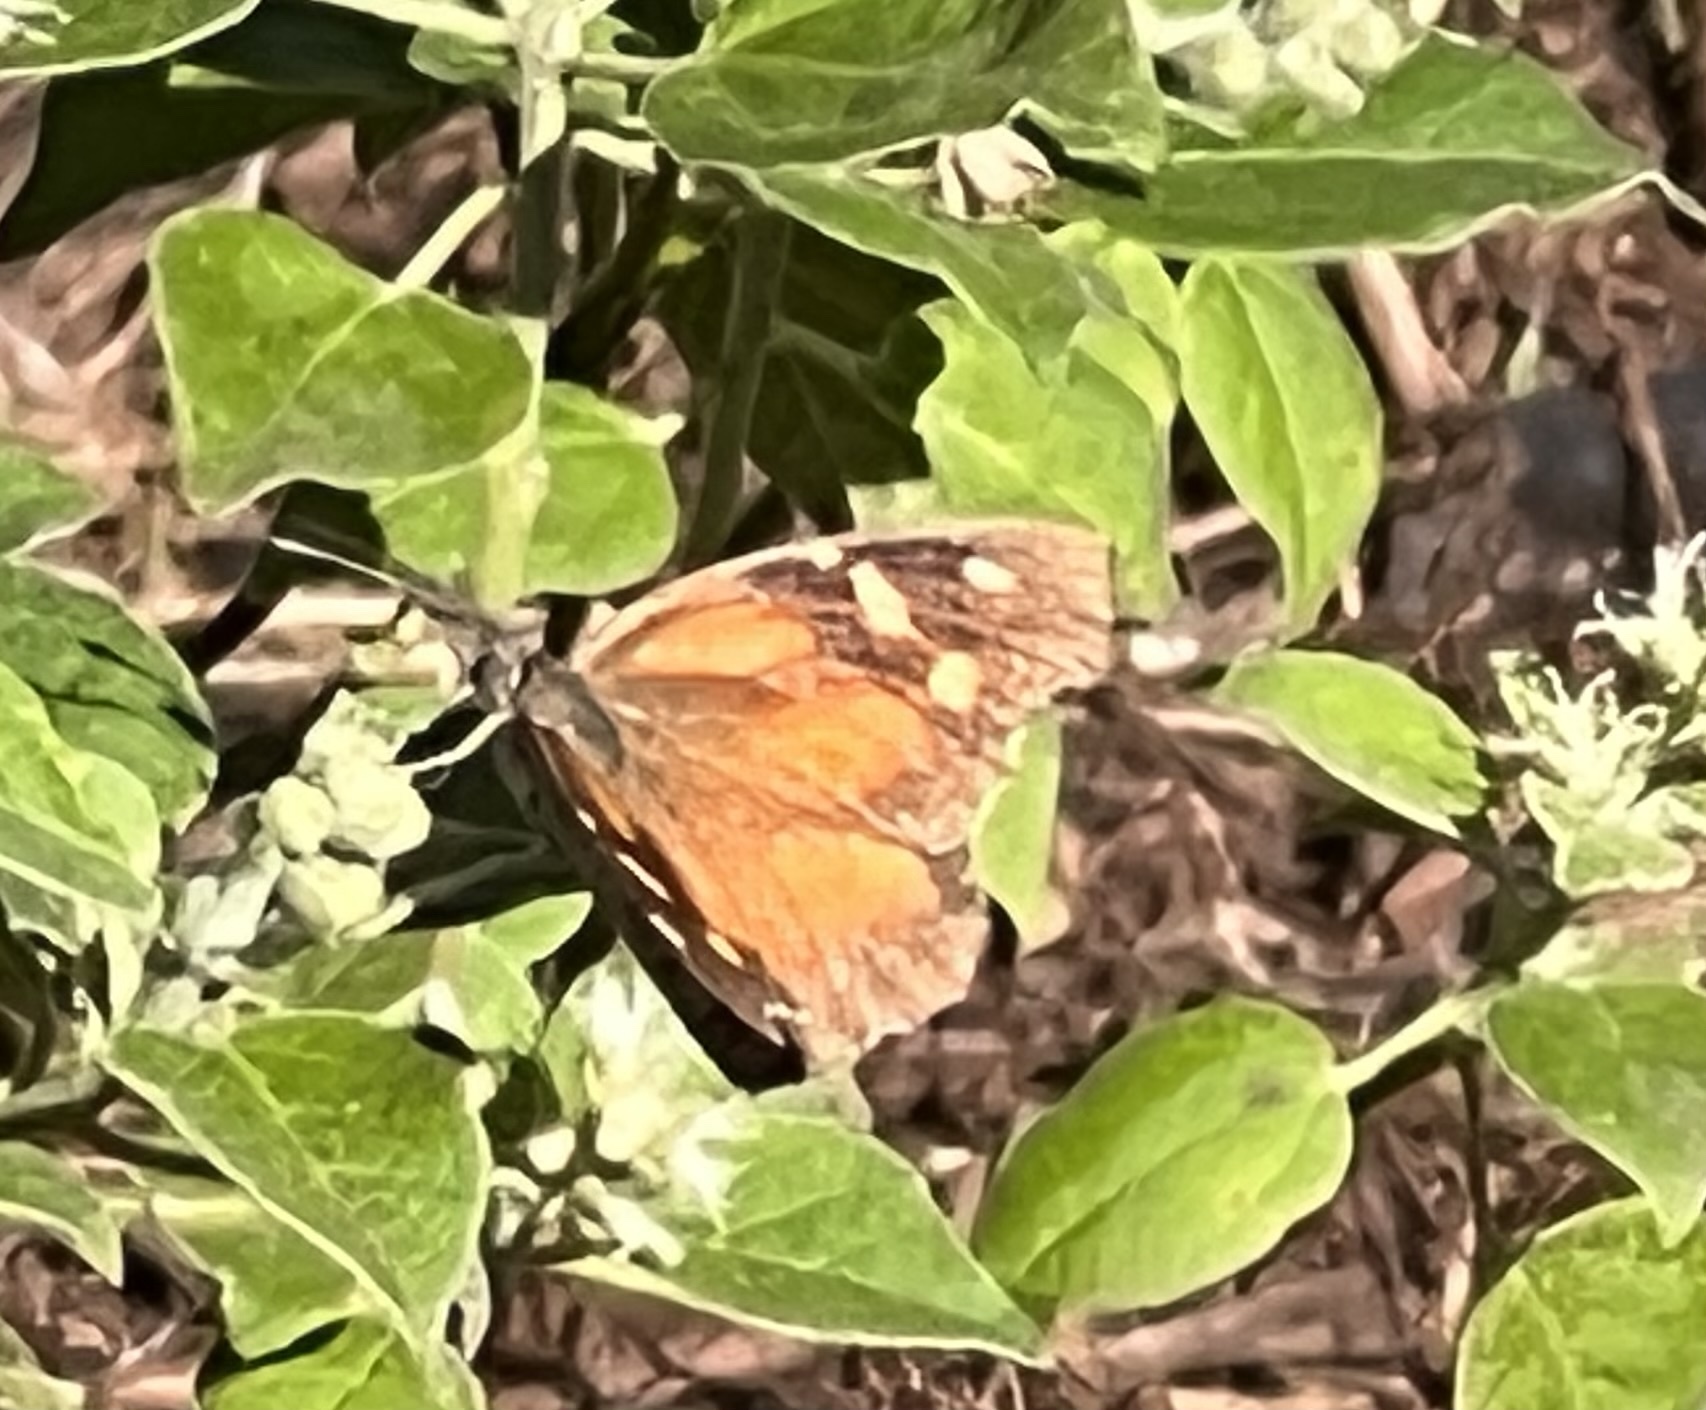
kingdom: Animalia
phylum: Arthropoda
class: Insecta
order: Lepidoptera
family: Nymphalidae
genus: Libytheana
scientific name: Libytheana carinenta
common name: American snout
